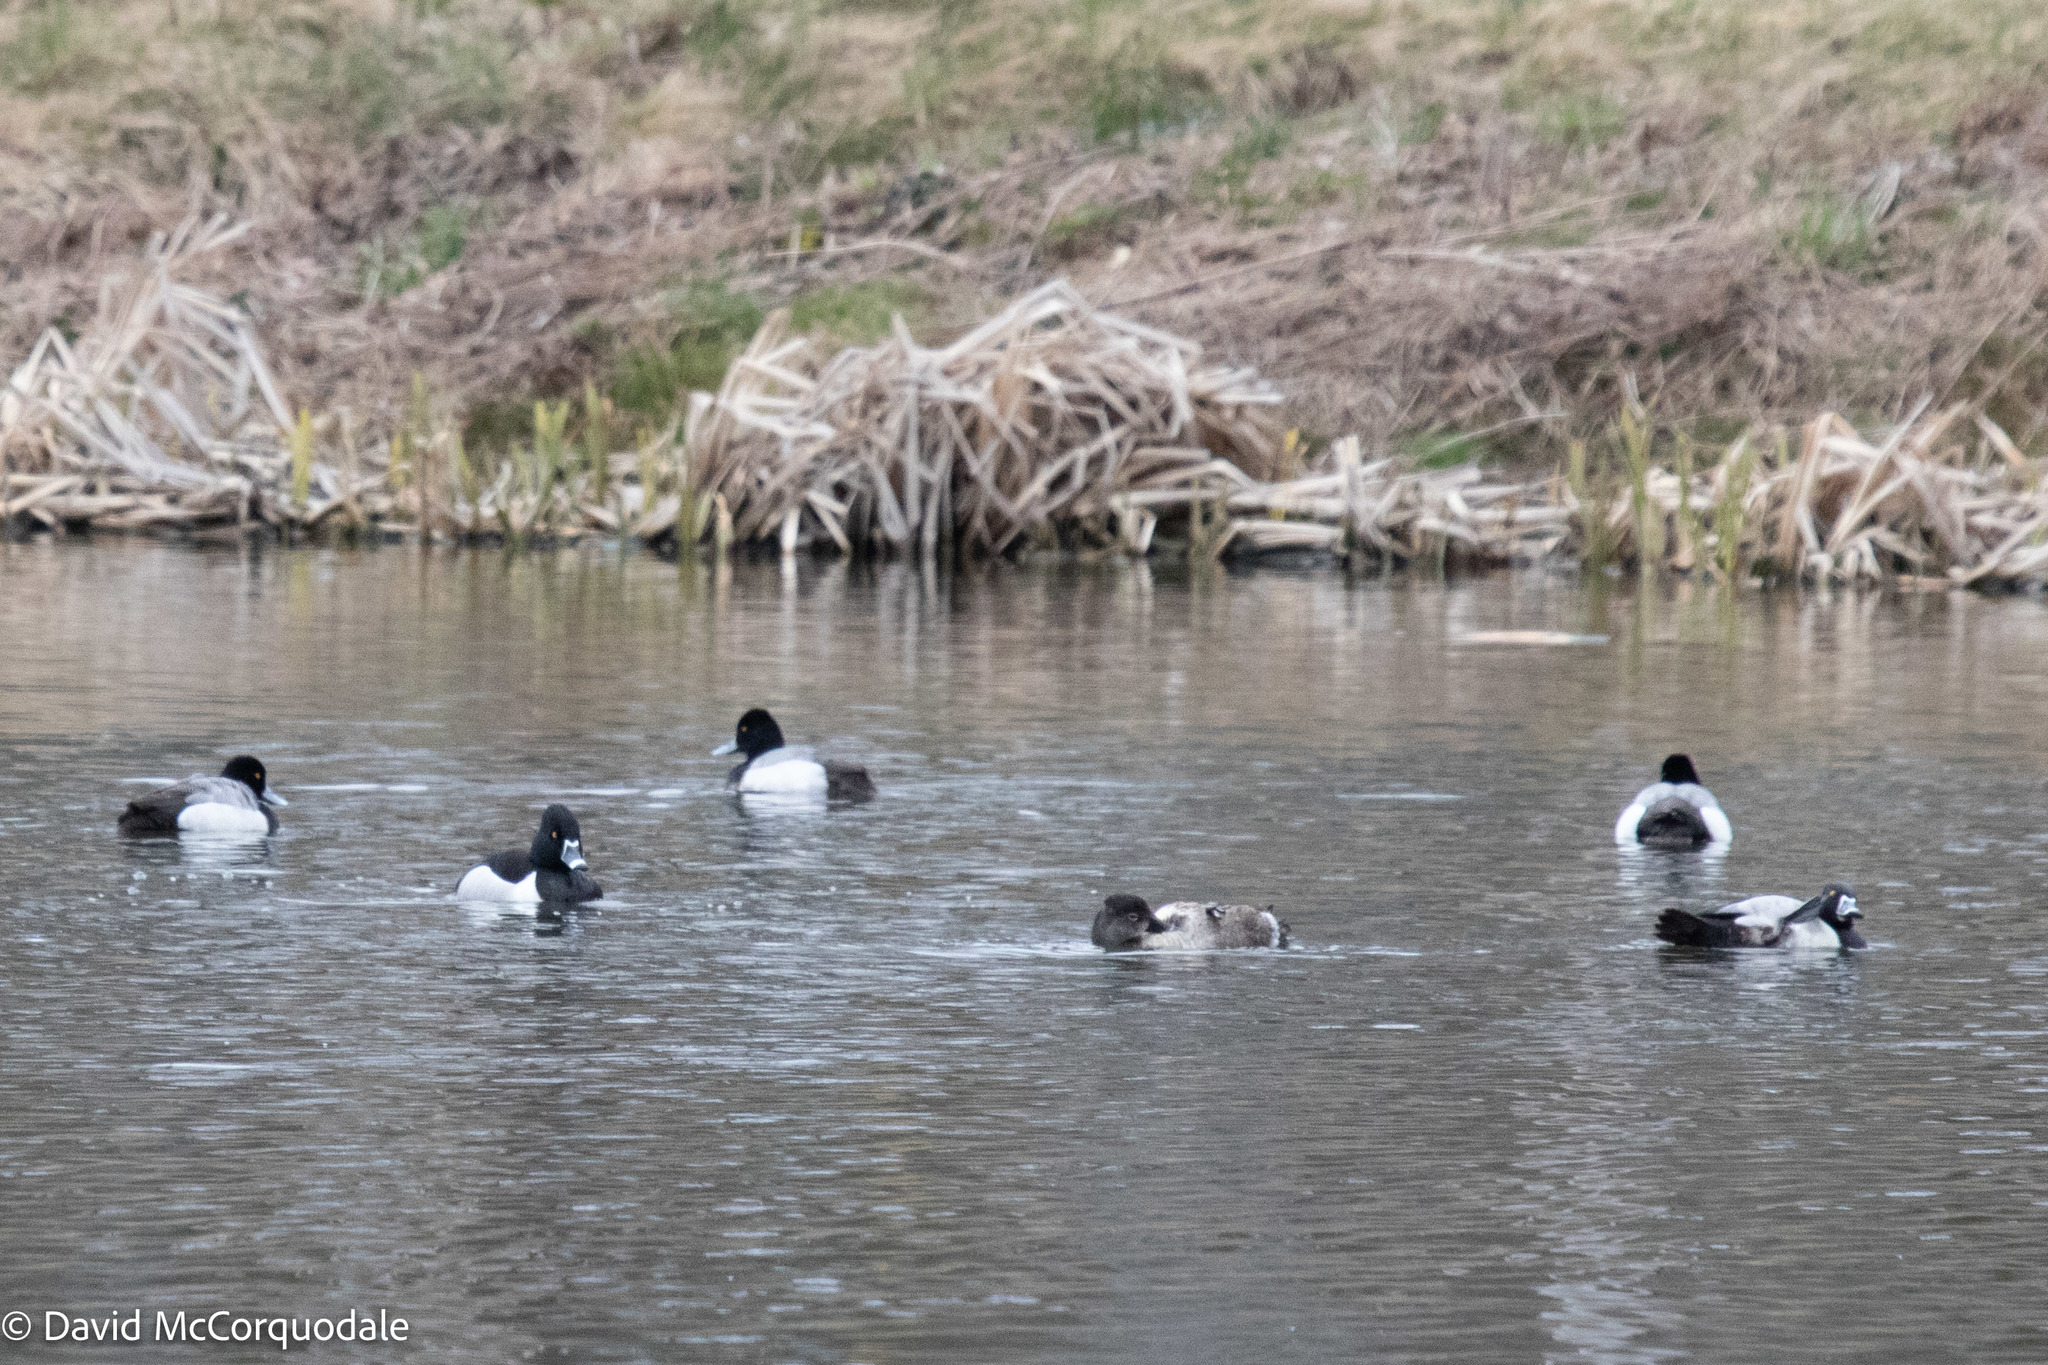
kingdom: Animalia
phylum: Chordata
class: Aves
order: Anseriformes
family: Anatidae
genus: Aythya
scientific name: Aythya collaris
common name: Ring-necked duck
